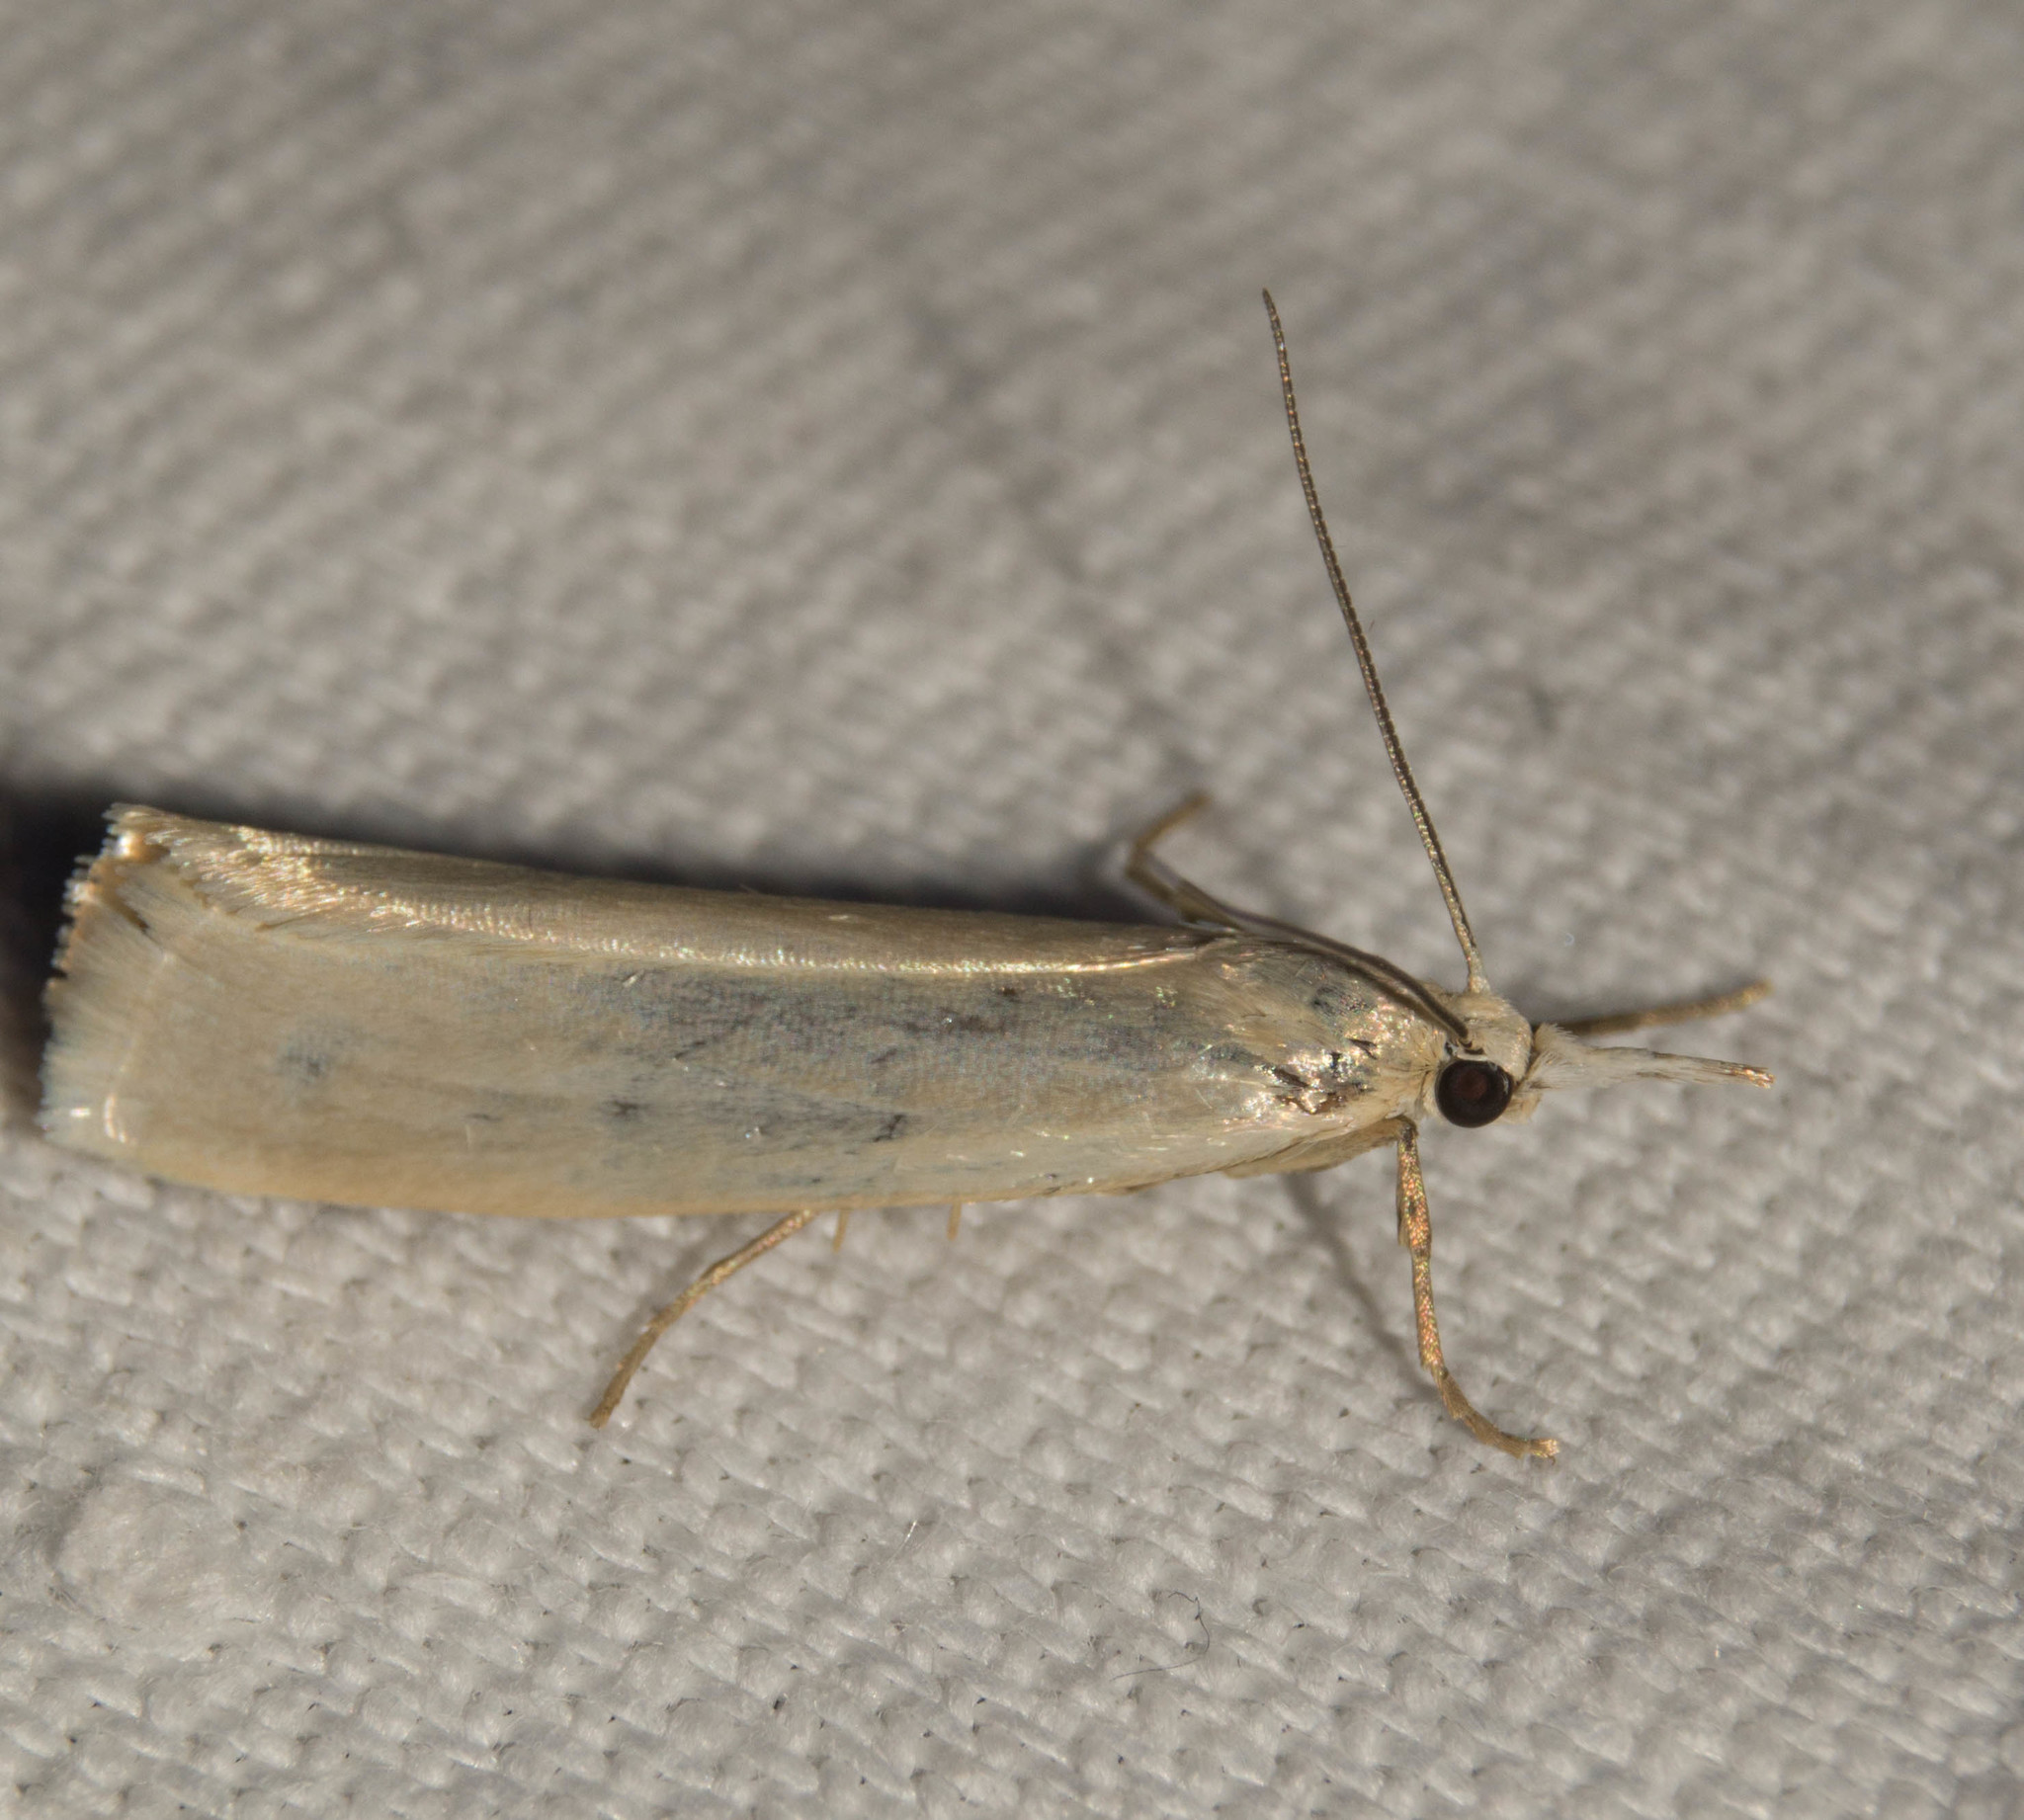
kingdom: Animalia
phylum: Arthropoda
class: Insecta
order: Lepidoptera
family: Crambidae
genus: Crambus
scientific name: Crambus perlellus
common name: Yellow satin veneer
